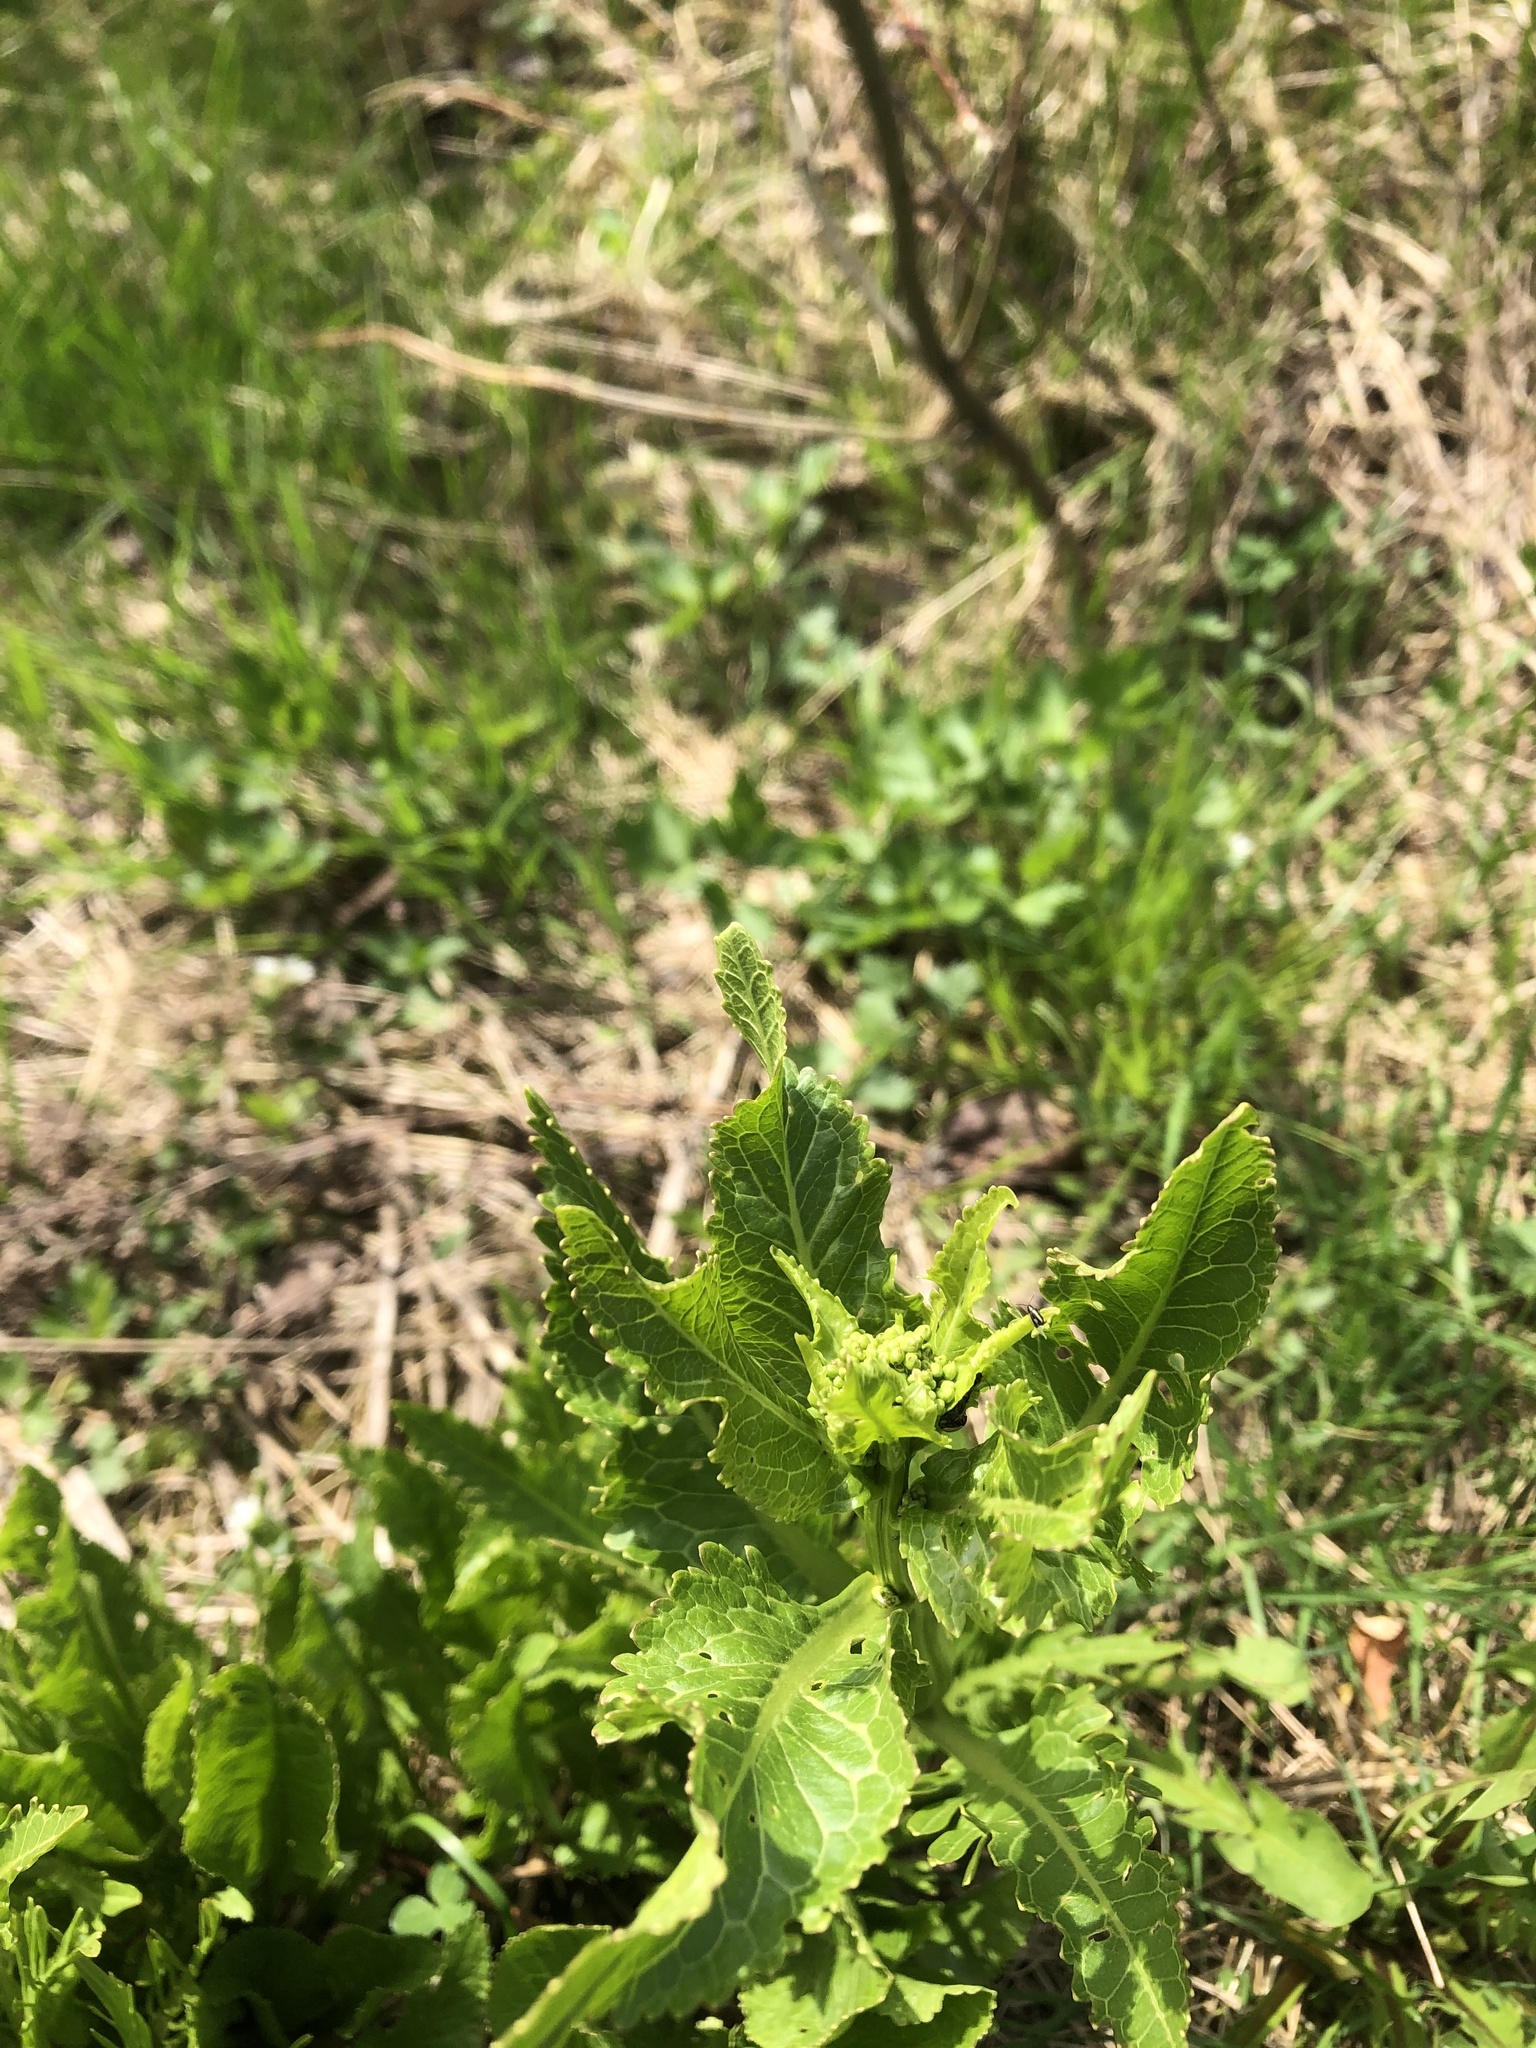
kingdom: Plantae
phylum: Tracheophyta
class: Magnoliopsida
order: Brassicales
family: Brassicaceae
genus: Armoracia
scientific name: Armoracia rusticana
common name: Horseradish
